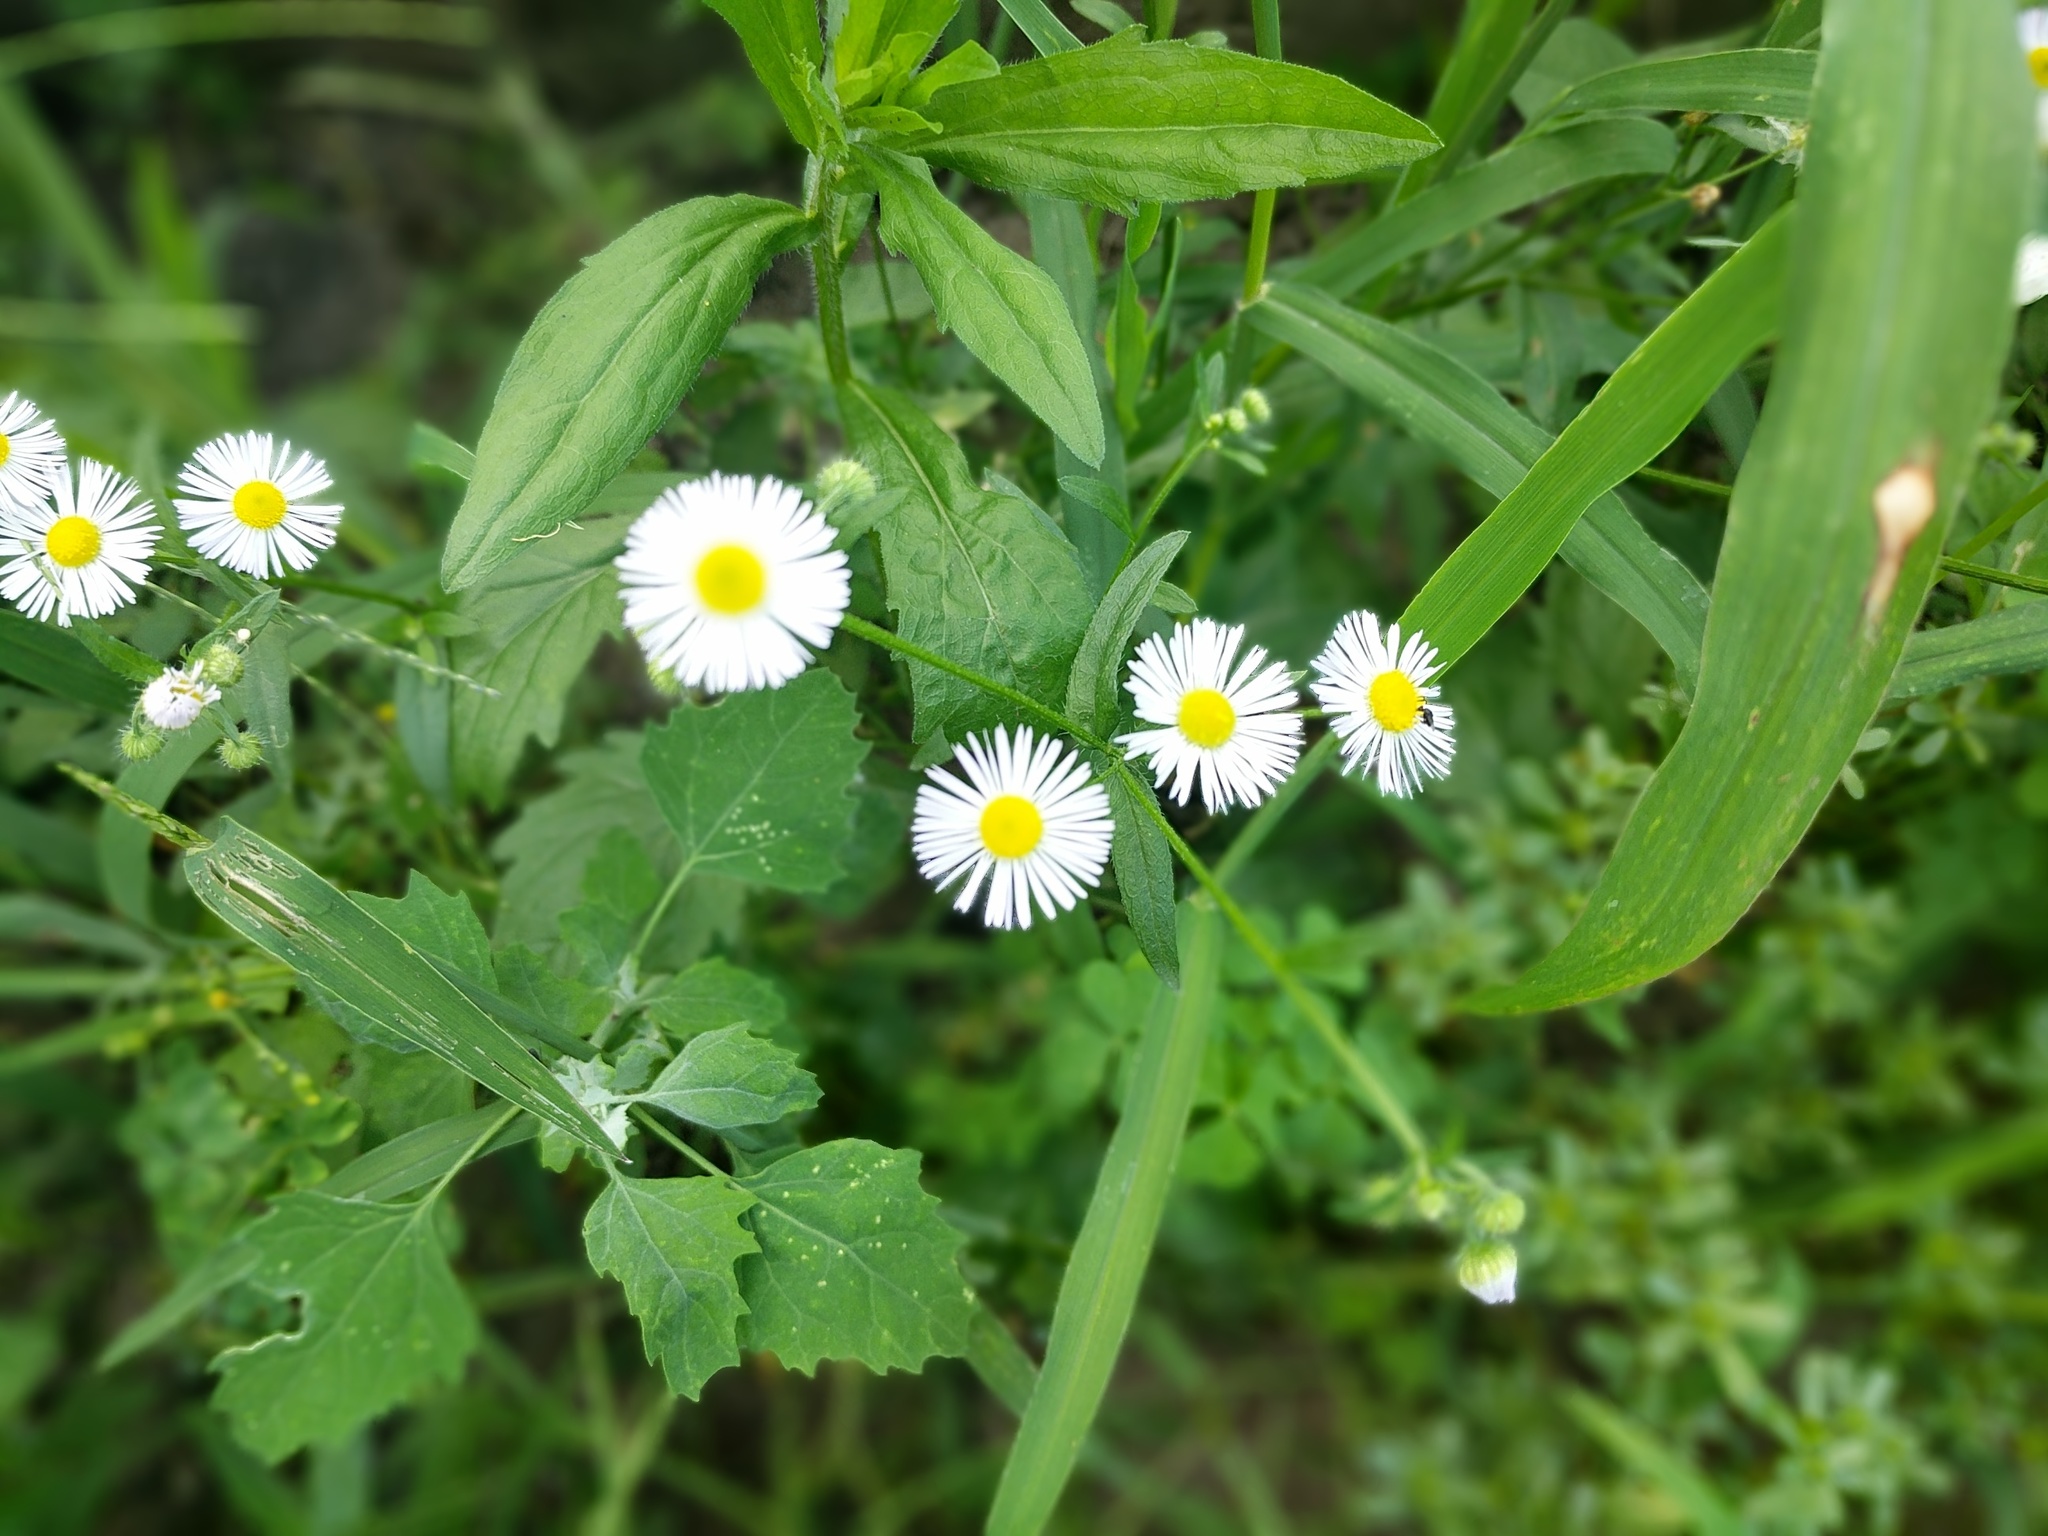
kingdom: Plantae
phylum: Tracheophyta
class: Magnoliopsida
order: Asterales
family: Asteraceae
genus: Erigeron
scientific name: Erigeron strigosus
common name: Common eastern fleabane
